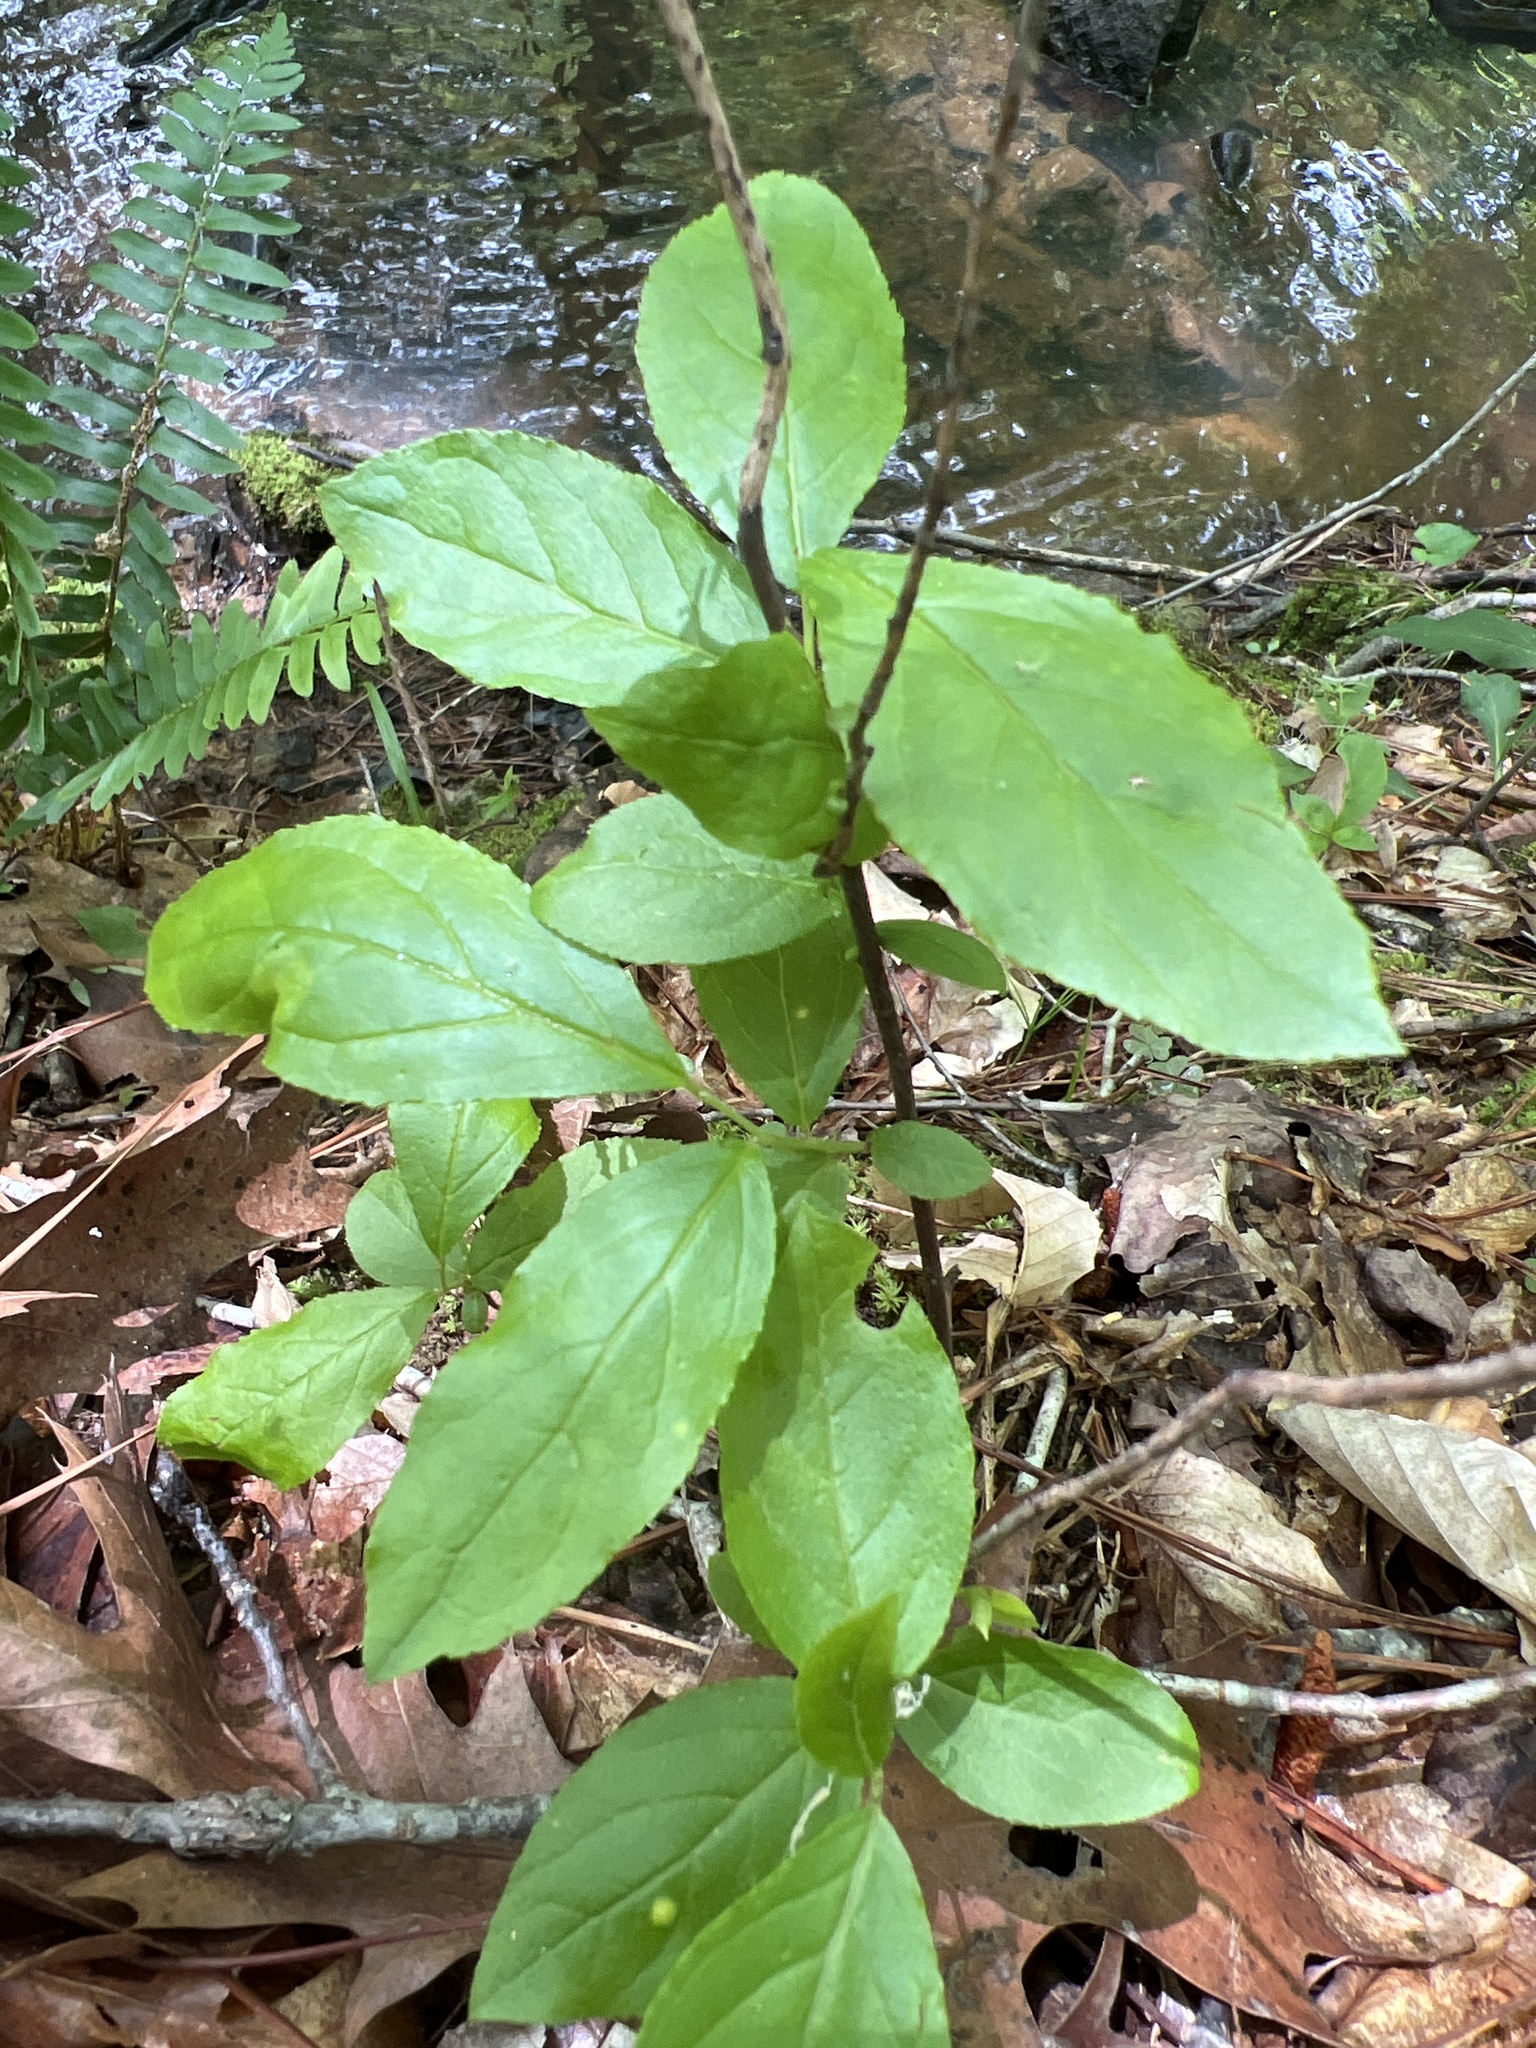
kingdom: Plantae
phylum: Tracheophyta
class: Magnoliopsida
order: Saxifragales
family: Iteaceae
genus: Itea
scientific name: Itea virginica
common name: Sweetspire
